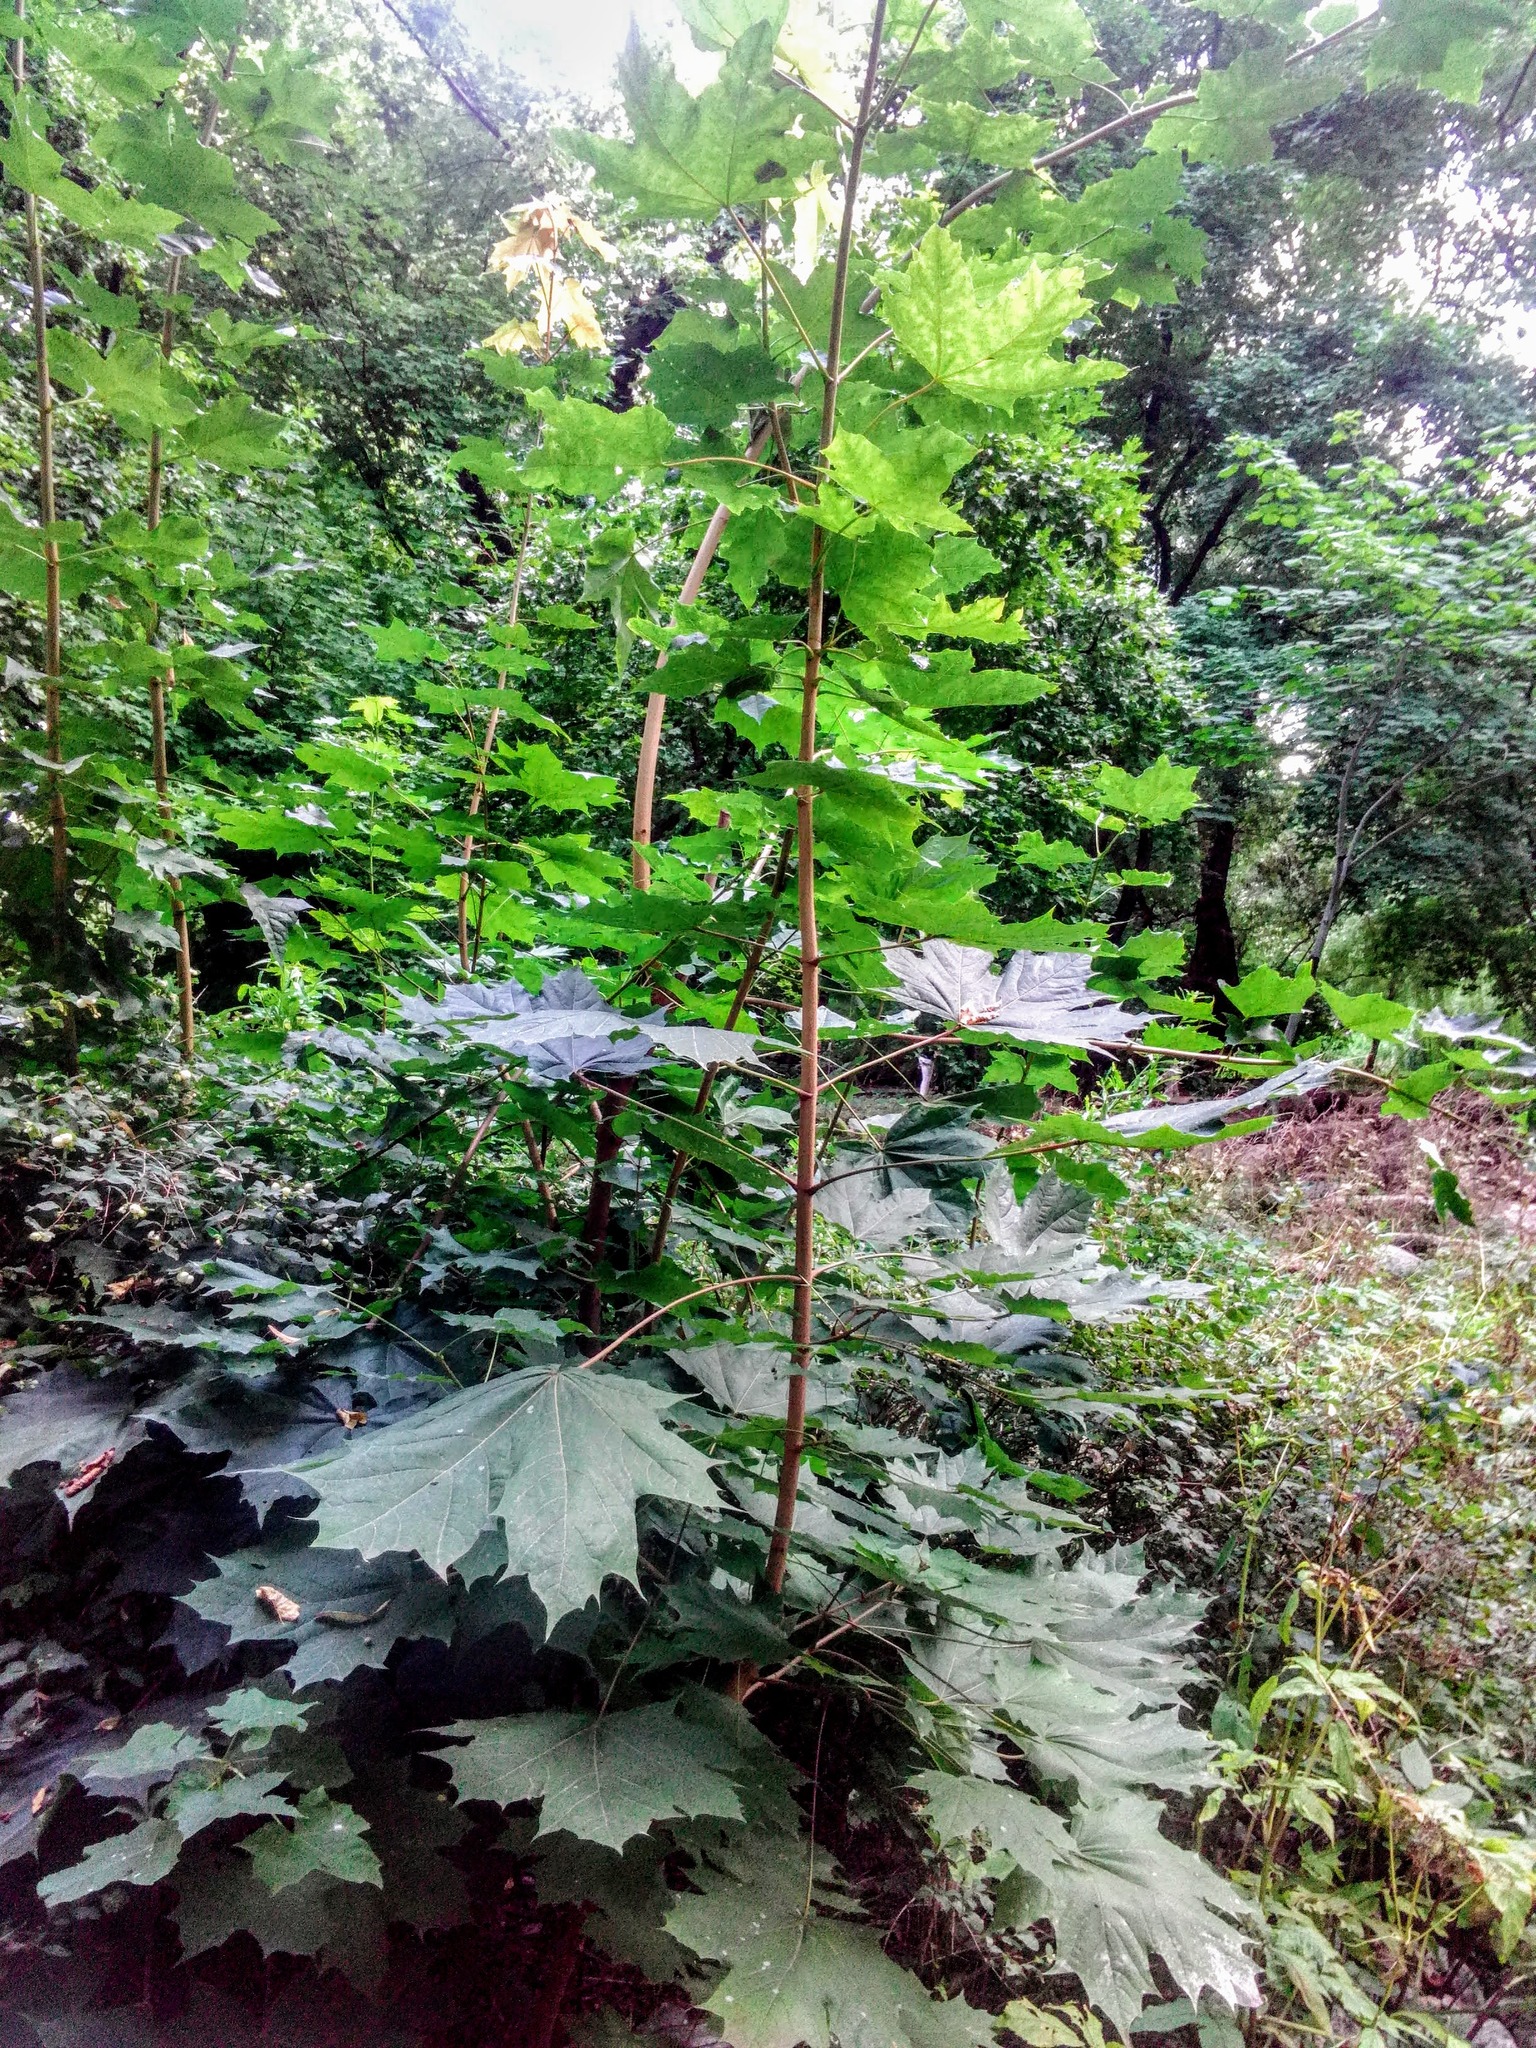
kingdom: Plantae
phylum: Tracheophyta
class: Magnoliopsida
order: Sapindales
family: Sapindaceae
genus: Acer
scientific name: Acer platanoides
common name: Norway maple
